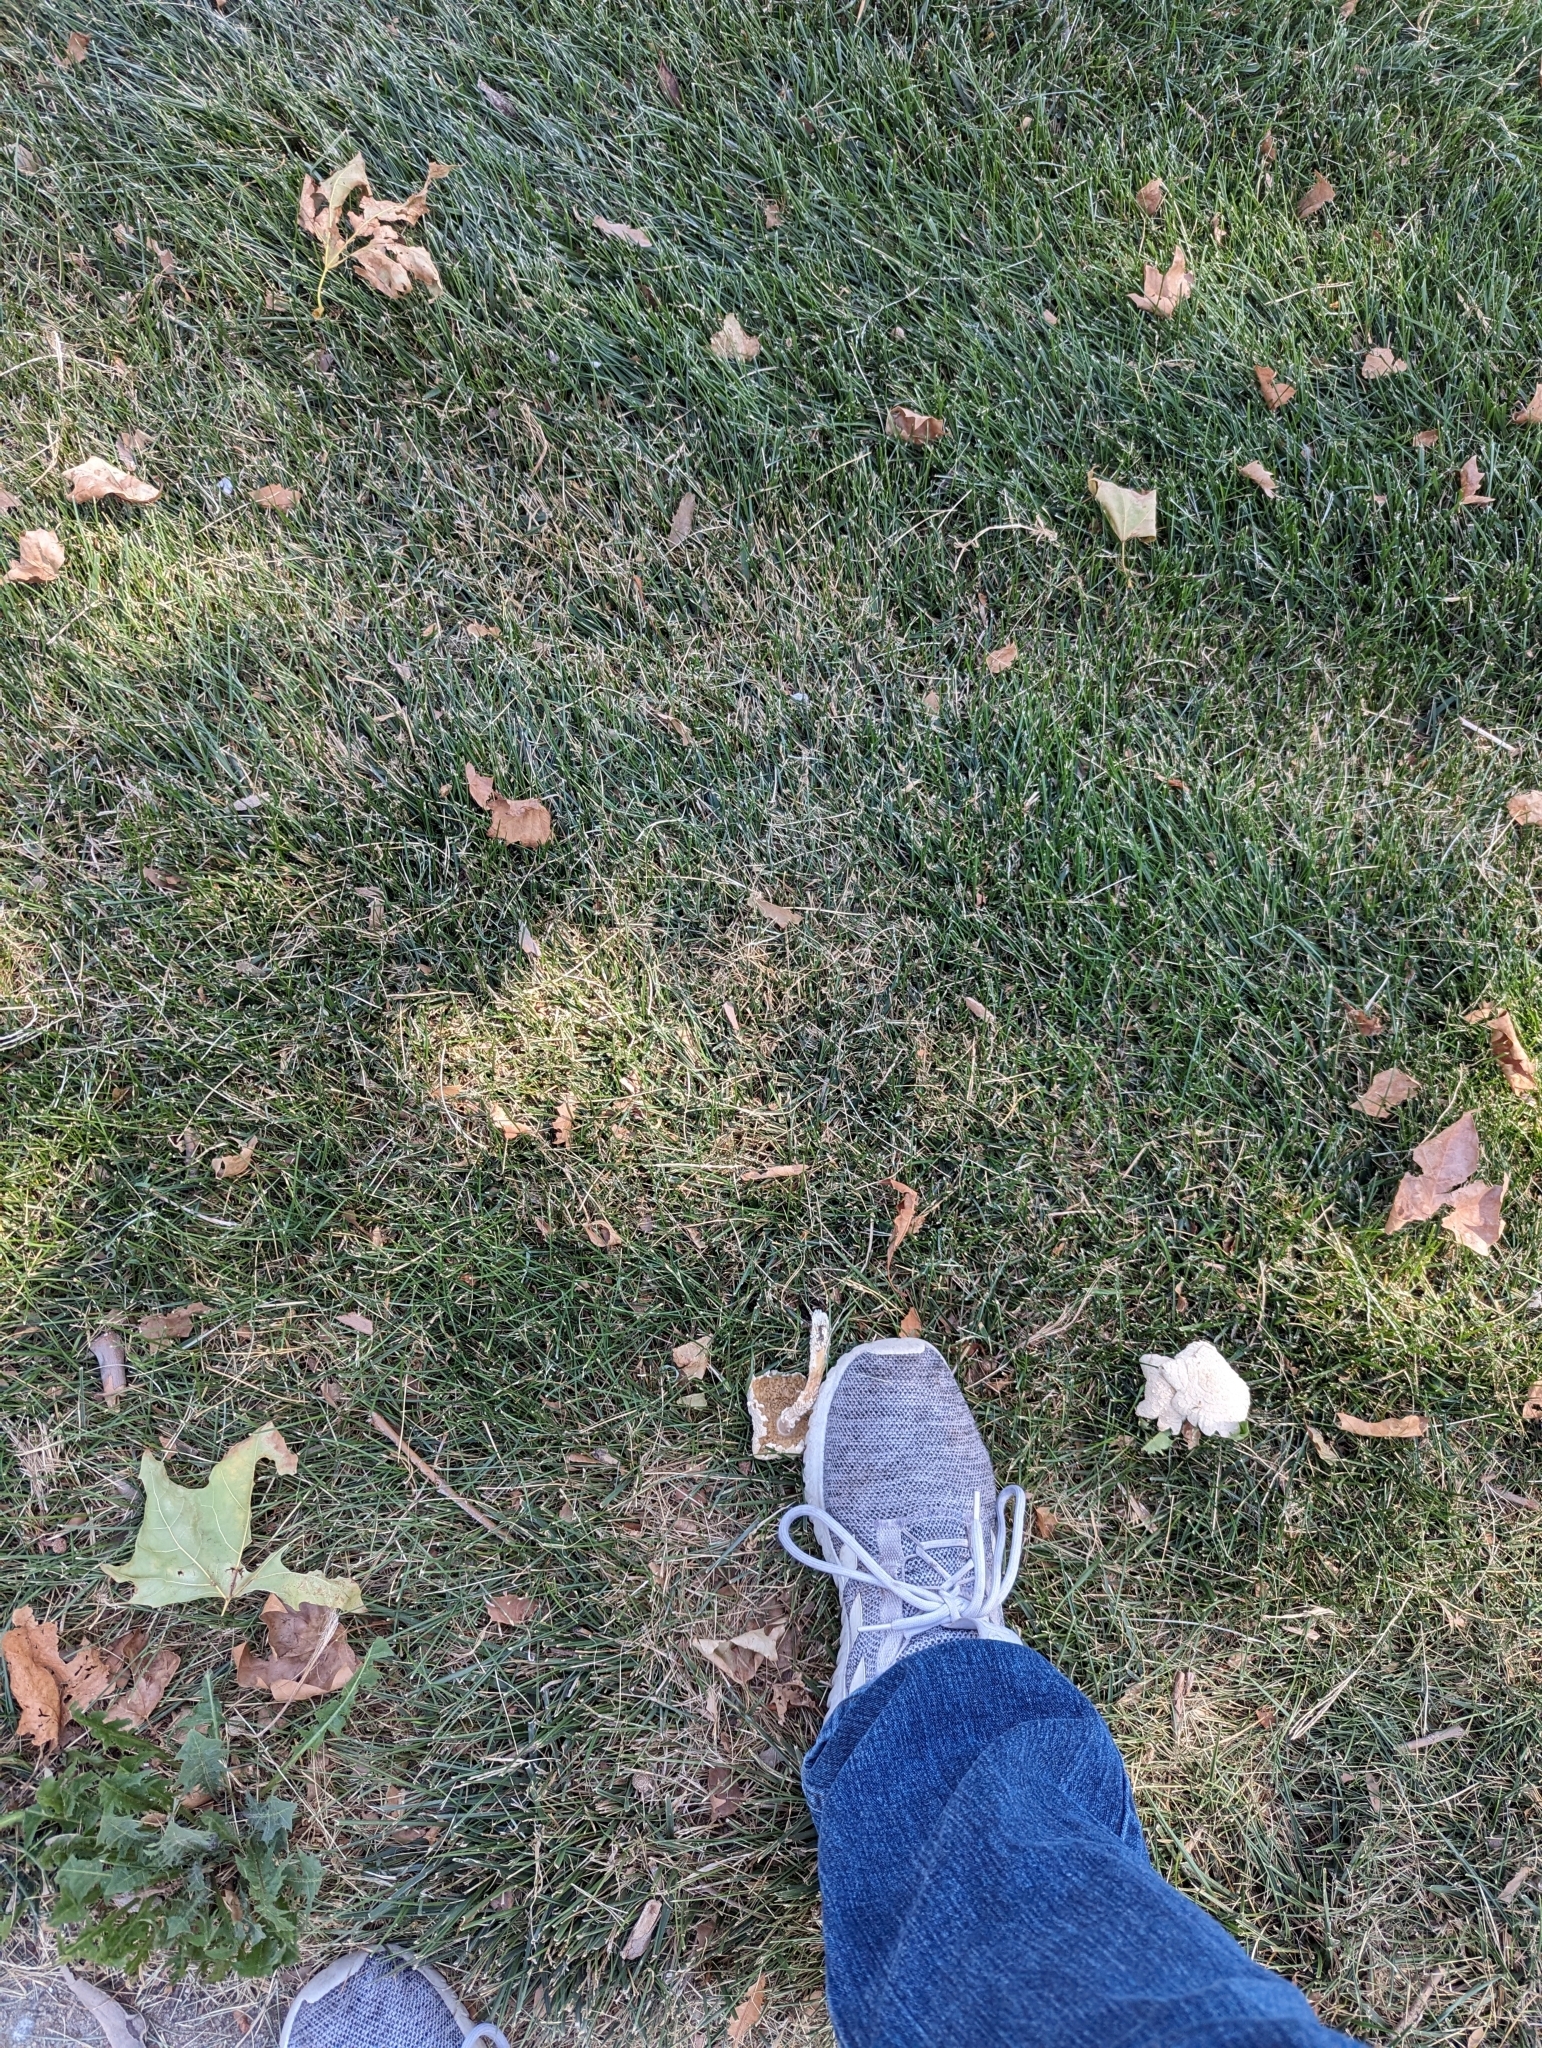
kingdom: Fungi
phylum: Basidiomycota
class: Agaricomycetes
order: Agaricales
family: Amanitaceae
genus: Amanita
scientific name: Amanita thiersii
